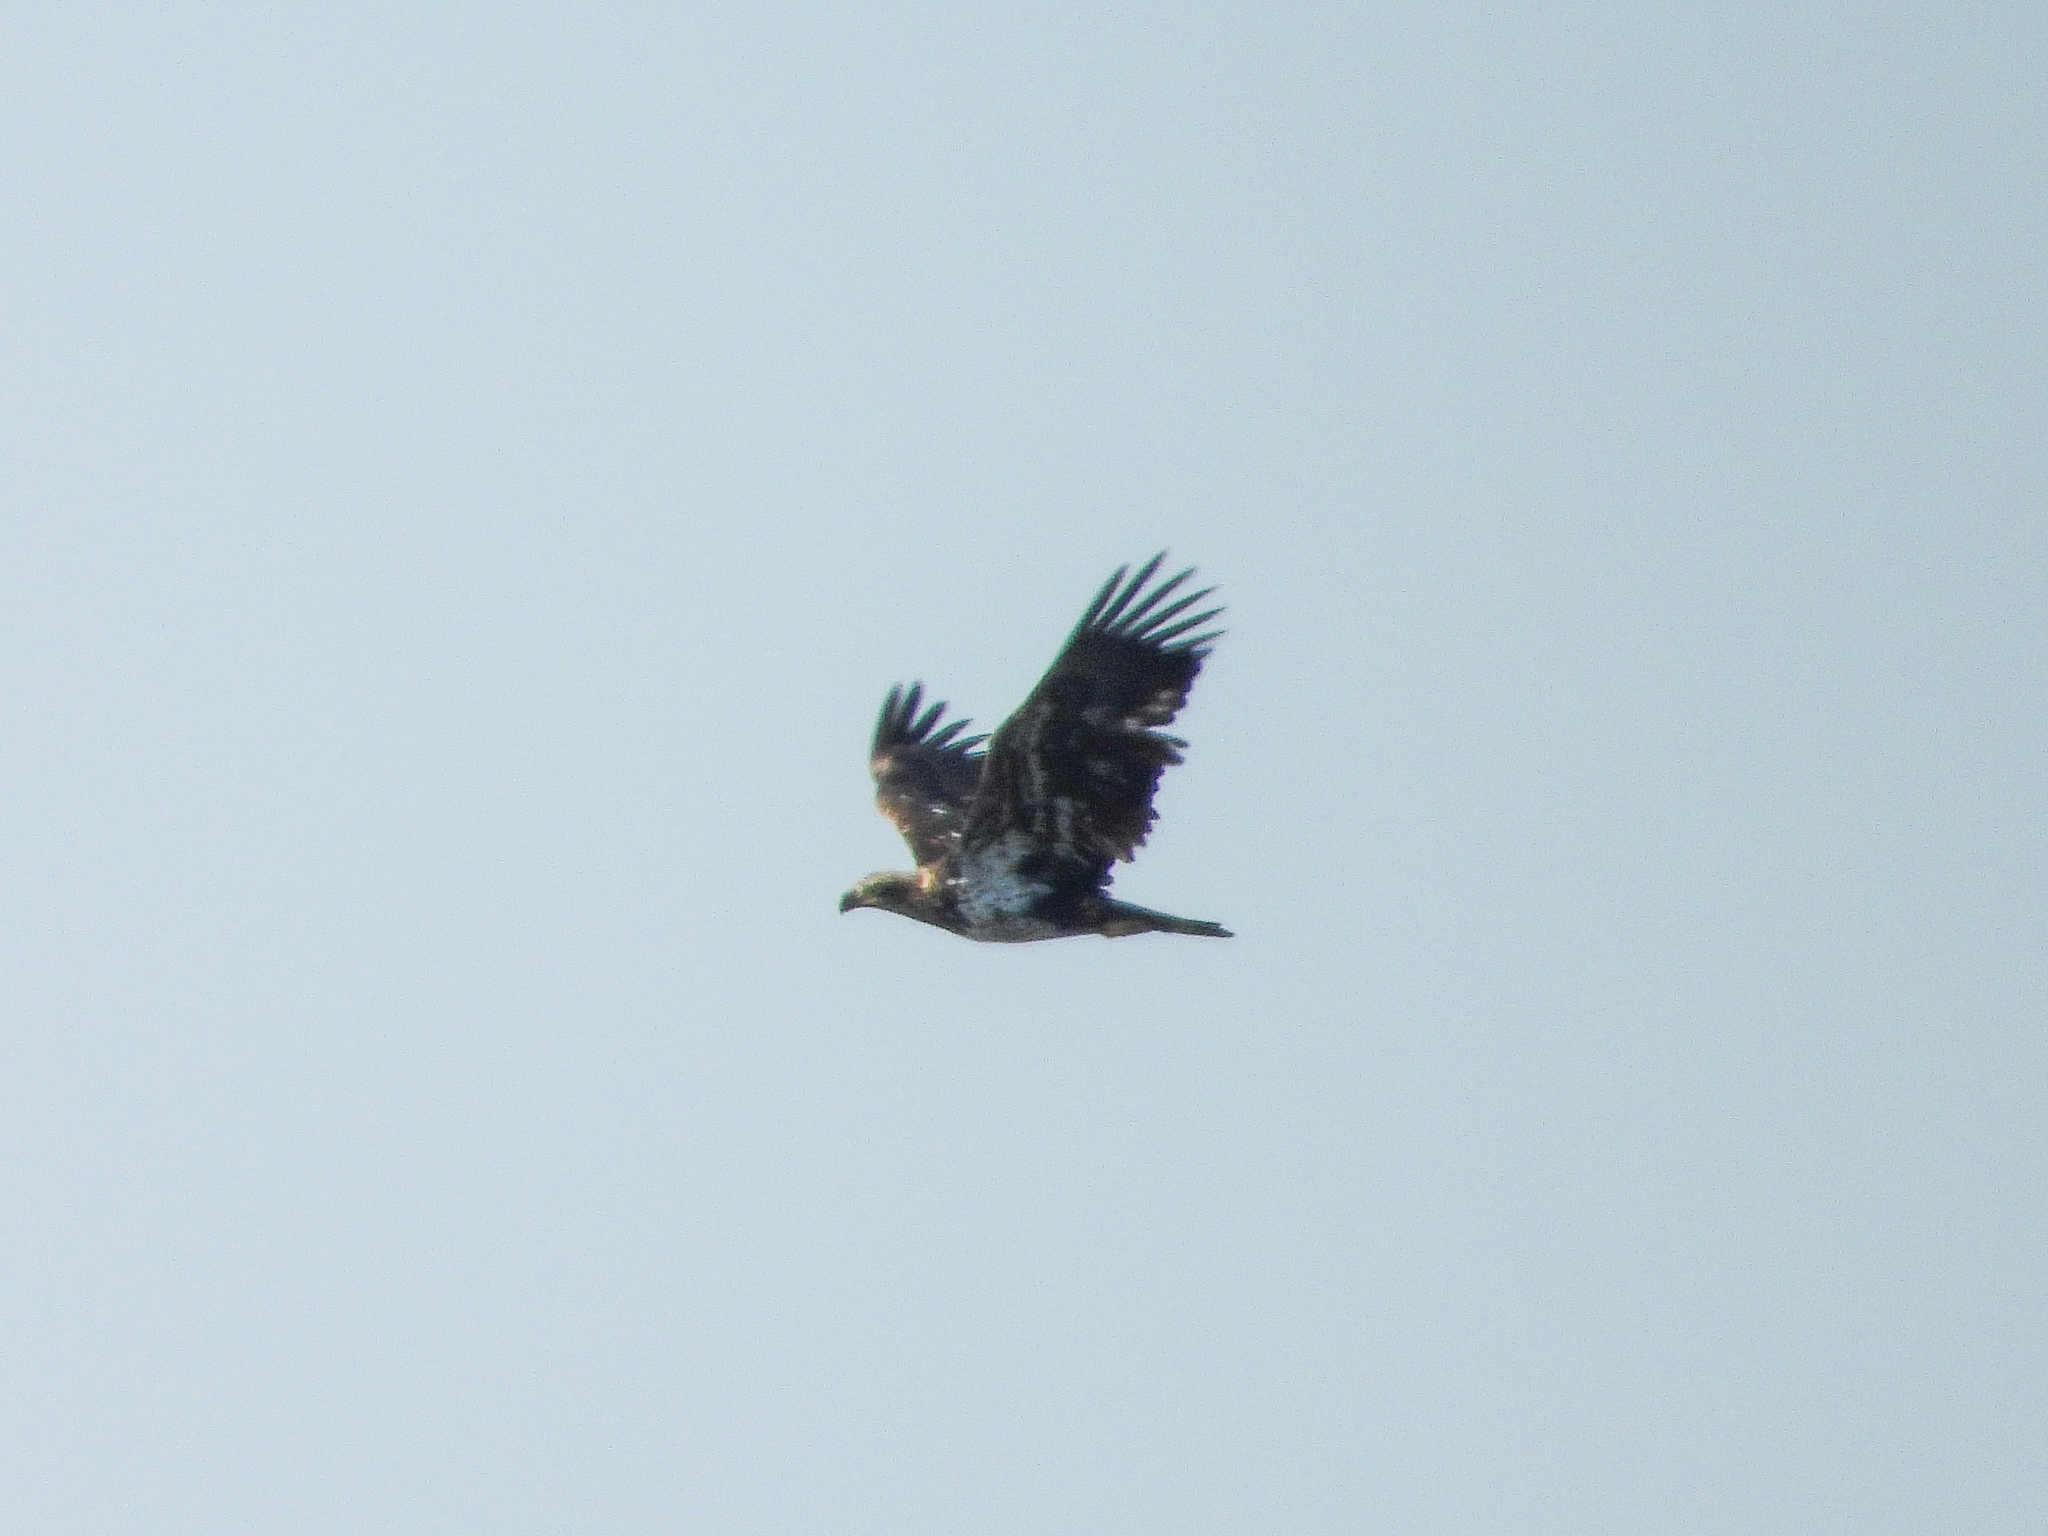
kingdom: Animalia
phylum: Chordata
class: Aves
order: Accipitriformes
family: Accipitridae
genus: Haliaeetus
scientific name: Haliaeetus leucocephalus
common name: Bald eagle
